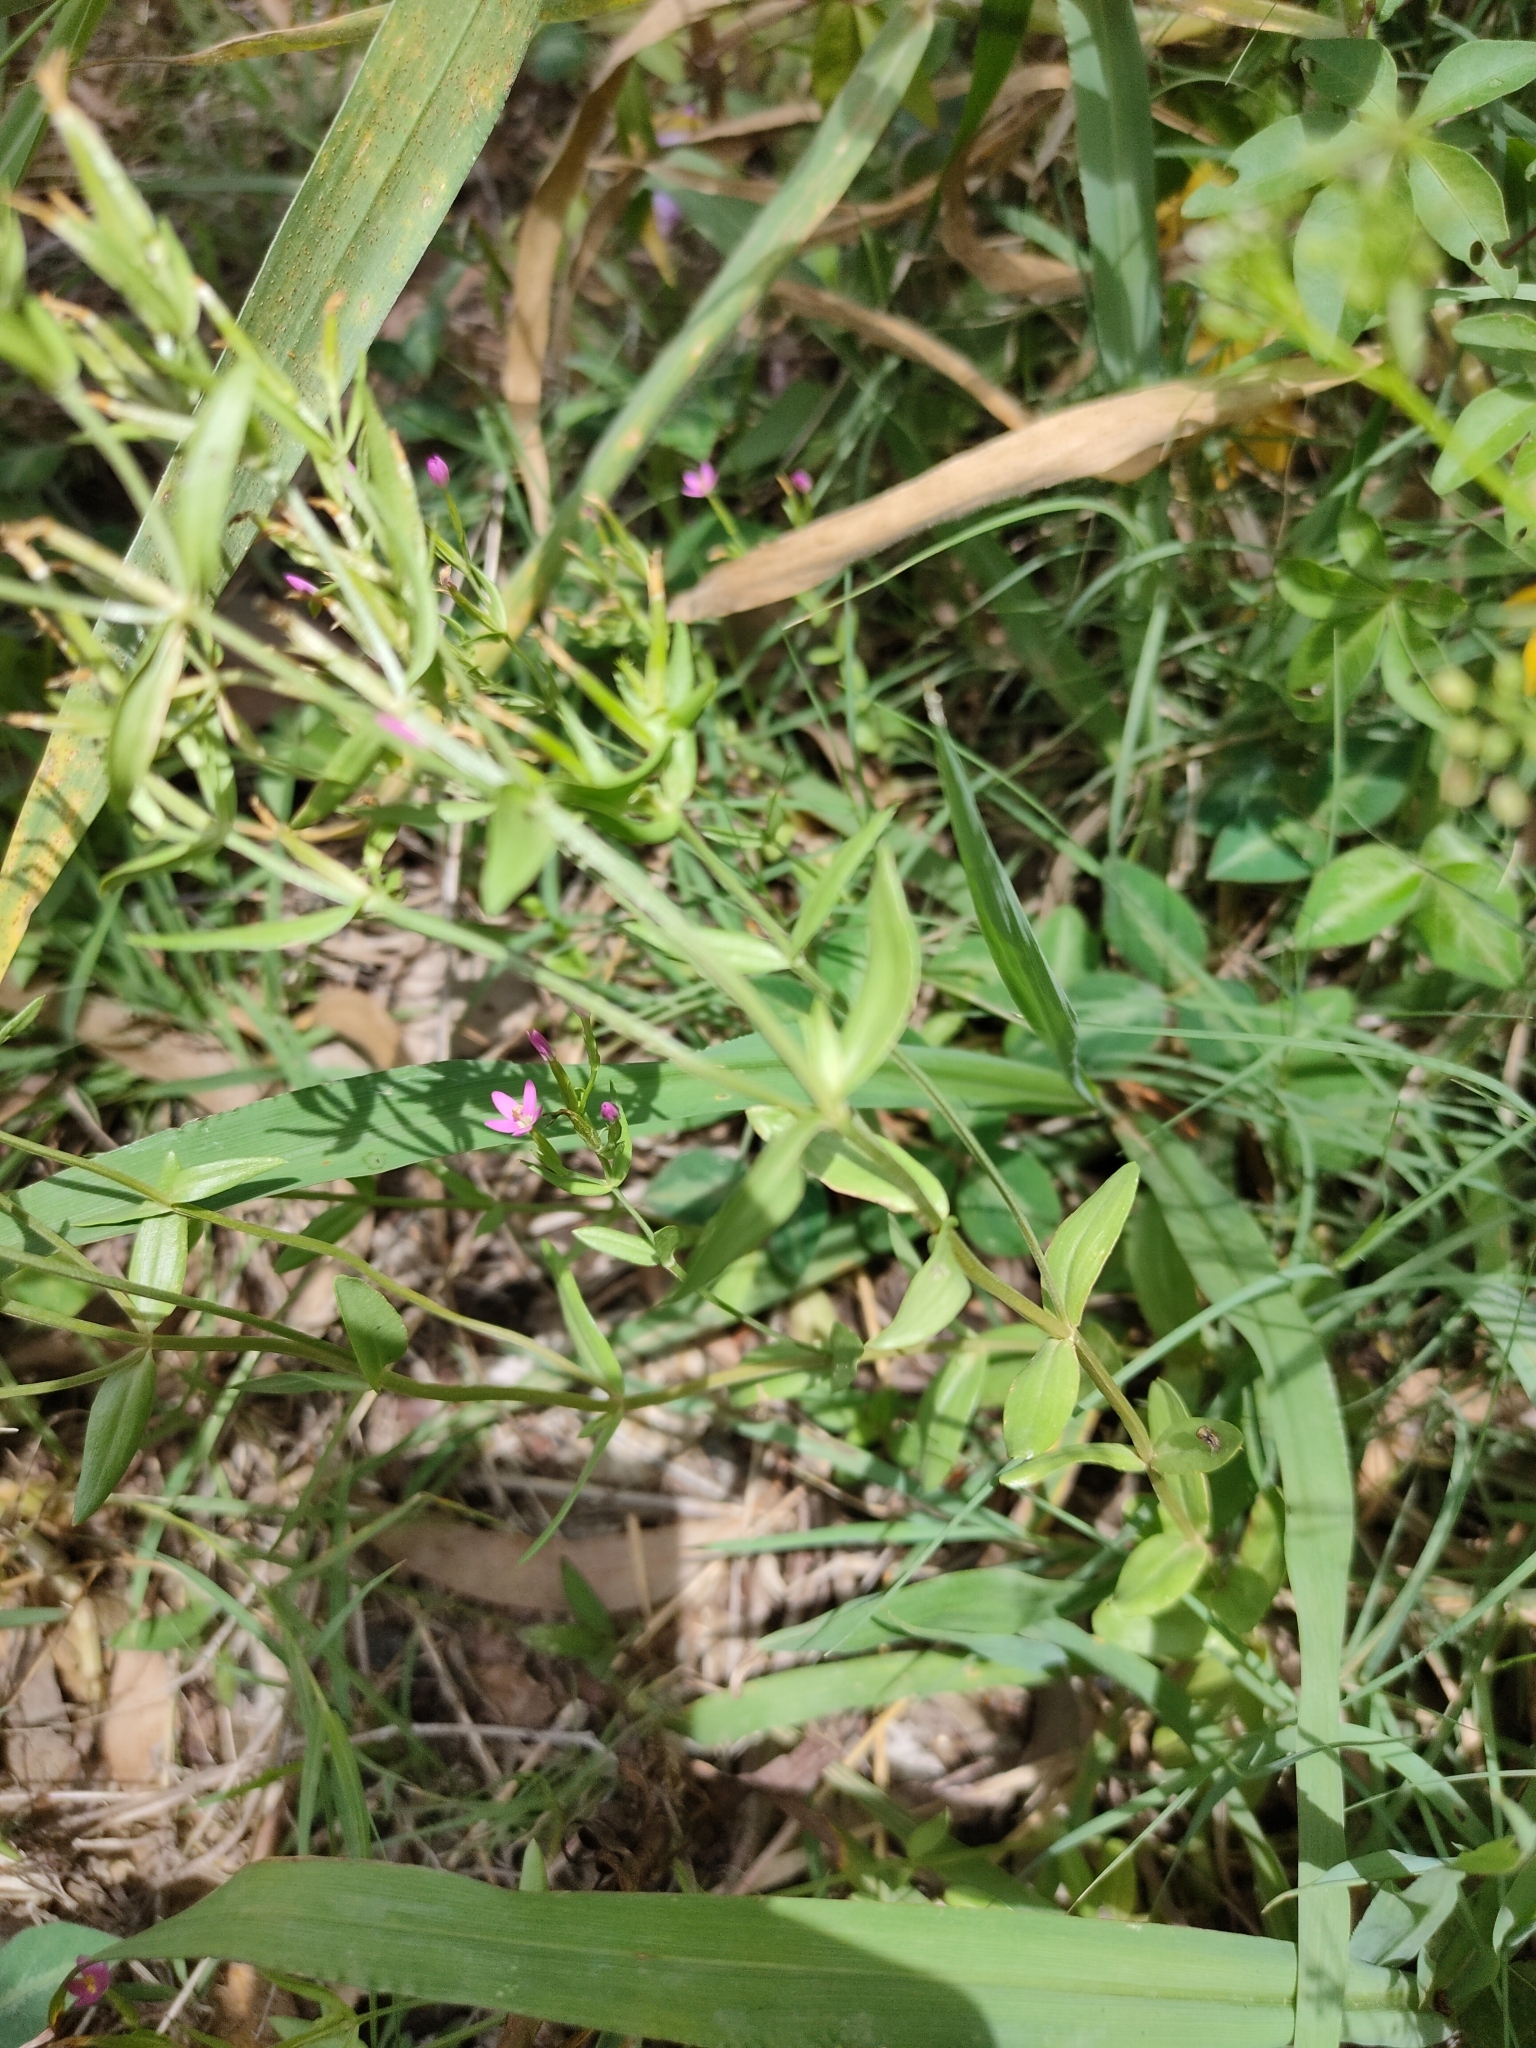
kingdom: Plantae
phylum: Tracheophyta
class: Magnoliopsida
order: Gentianales
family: Gentianaceae
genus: Centaurium
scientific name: Centaurium tenuiflorum
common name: Slender centaury
